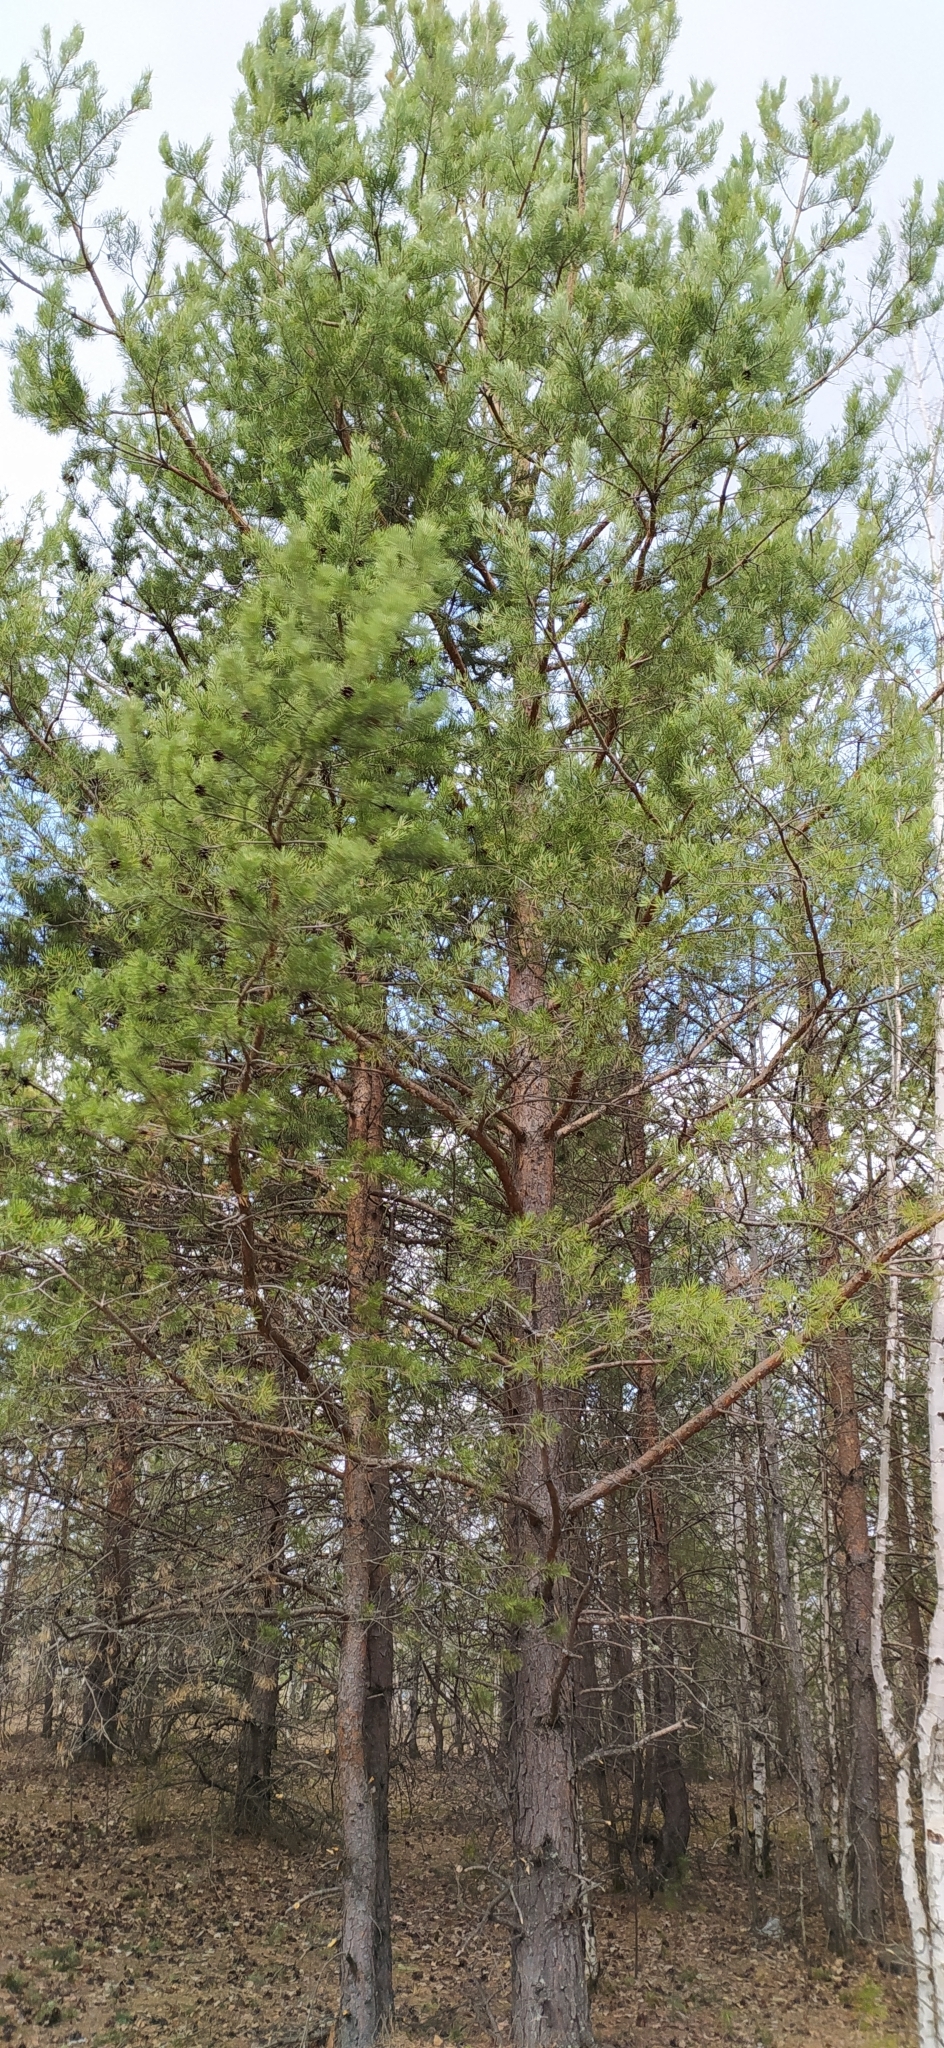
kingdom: Plantae
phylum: Tracheophyta
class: Pinopsida
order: Pinales
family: Pinaceae
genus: Pinus
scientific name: Pinus sylvestris
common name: Scots pine
